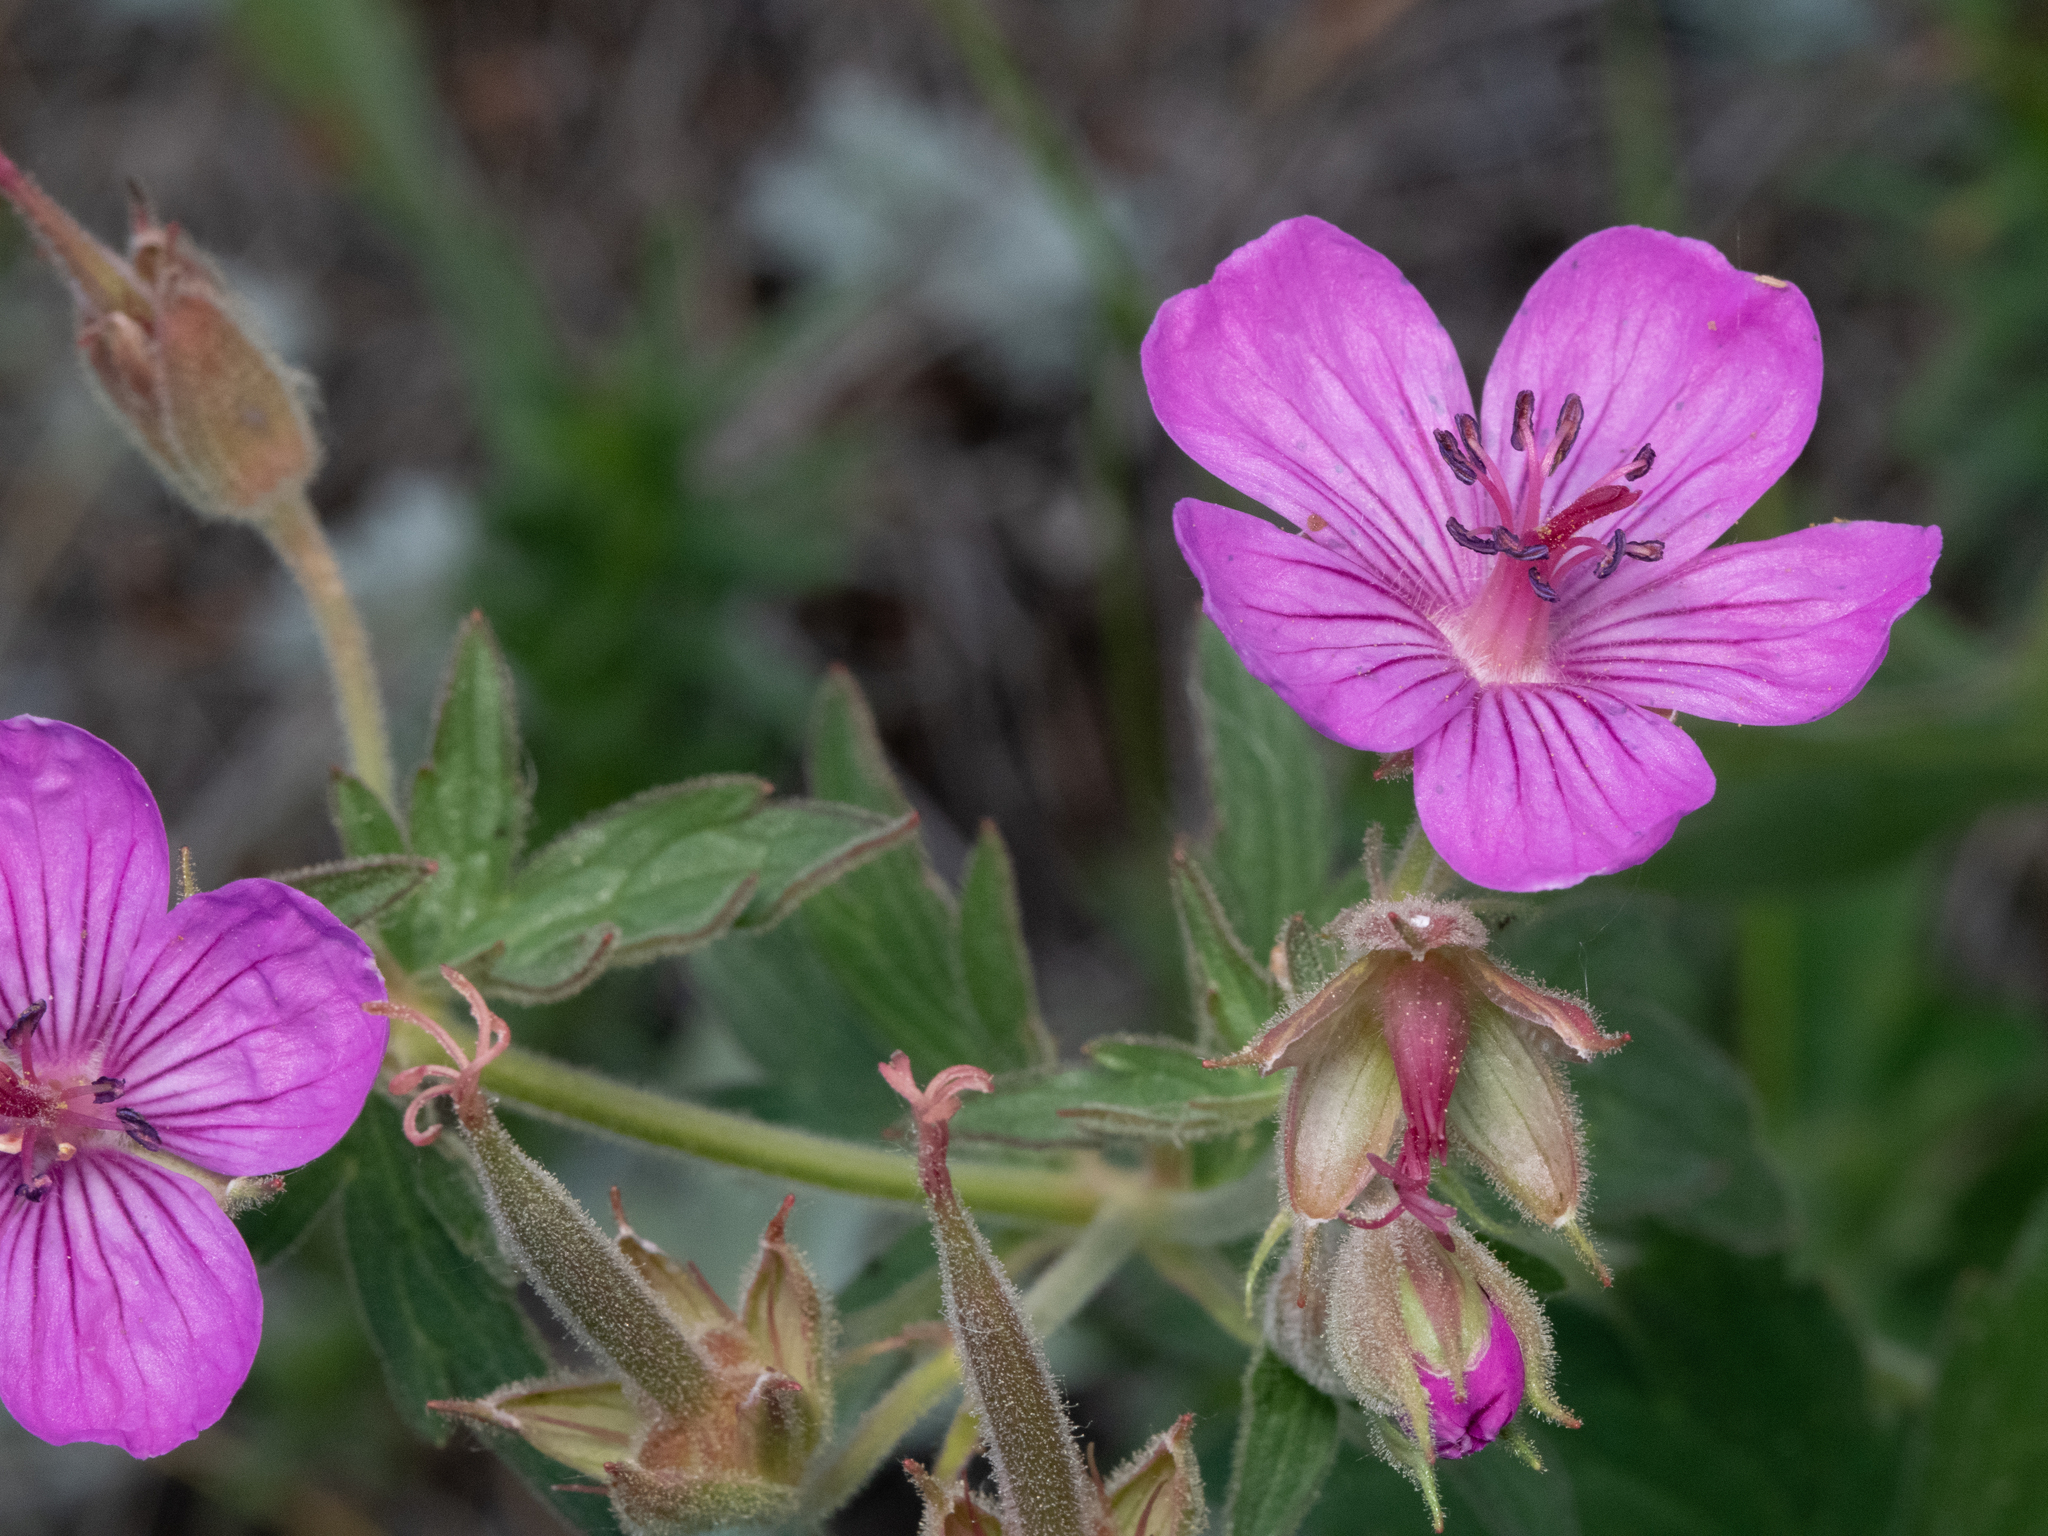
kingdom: Plantae
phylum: Tracheophyta
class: Magnoliopsida
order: Geraniales
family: Geraniaceae
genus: Geranium
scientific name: Geranium viscosissimum
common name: Purple geranium
